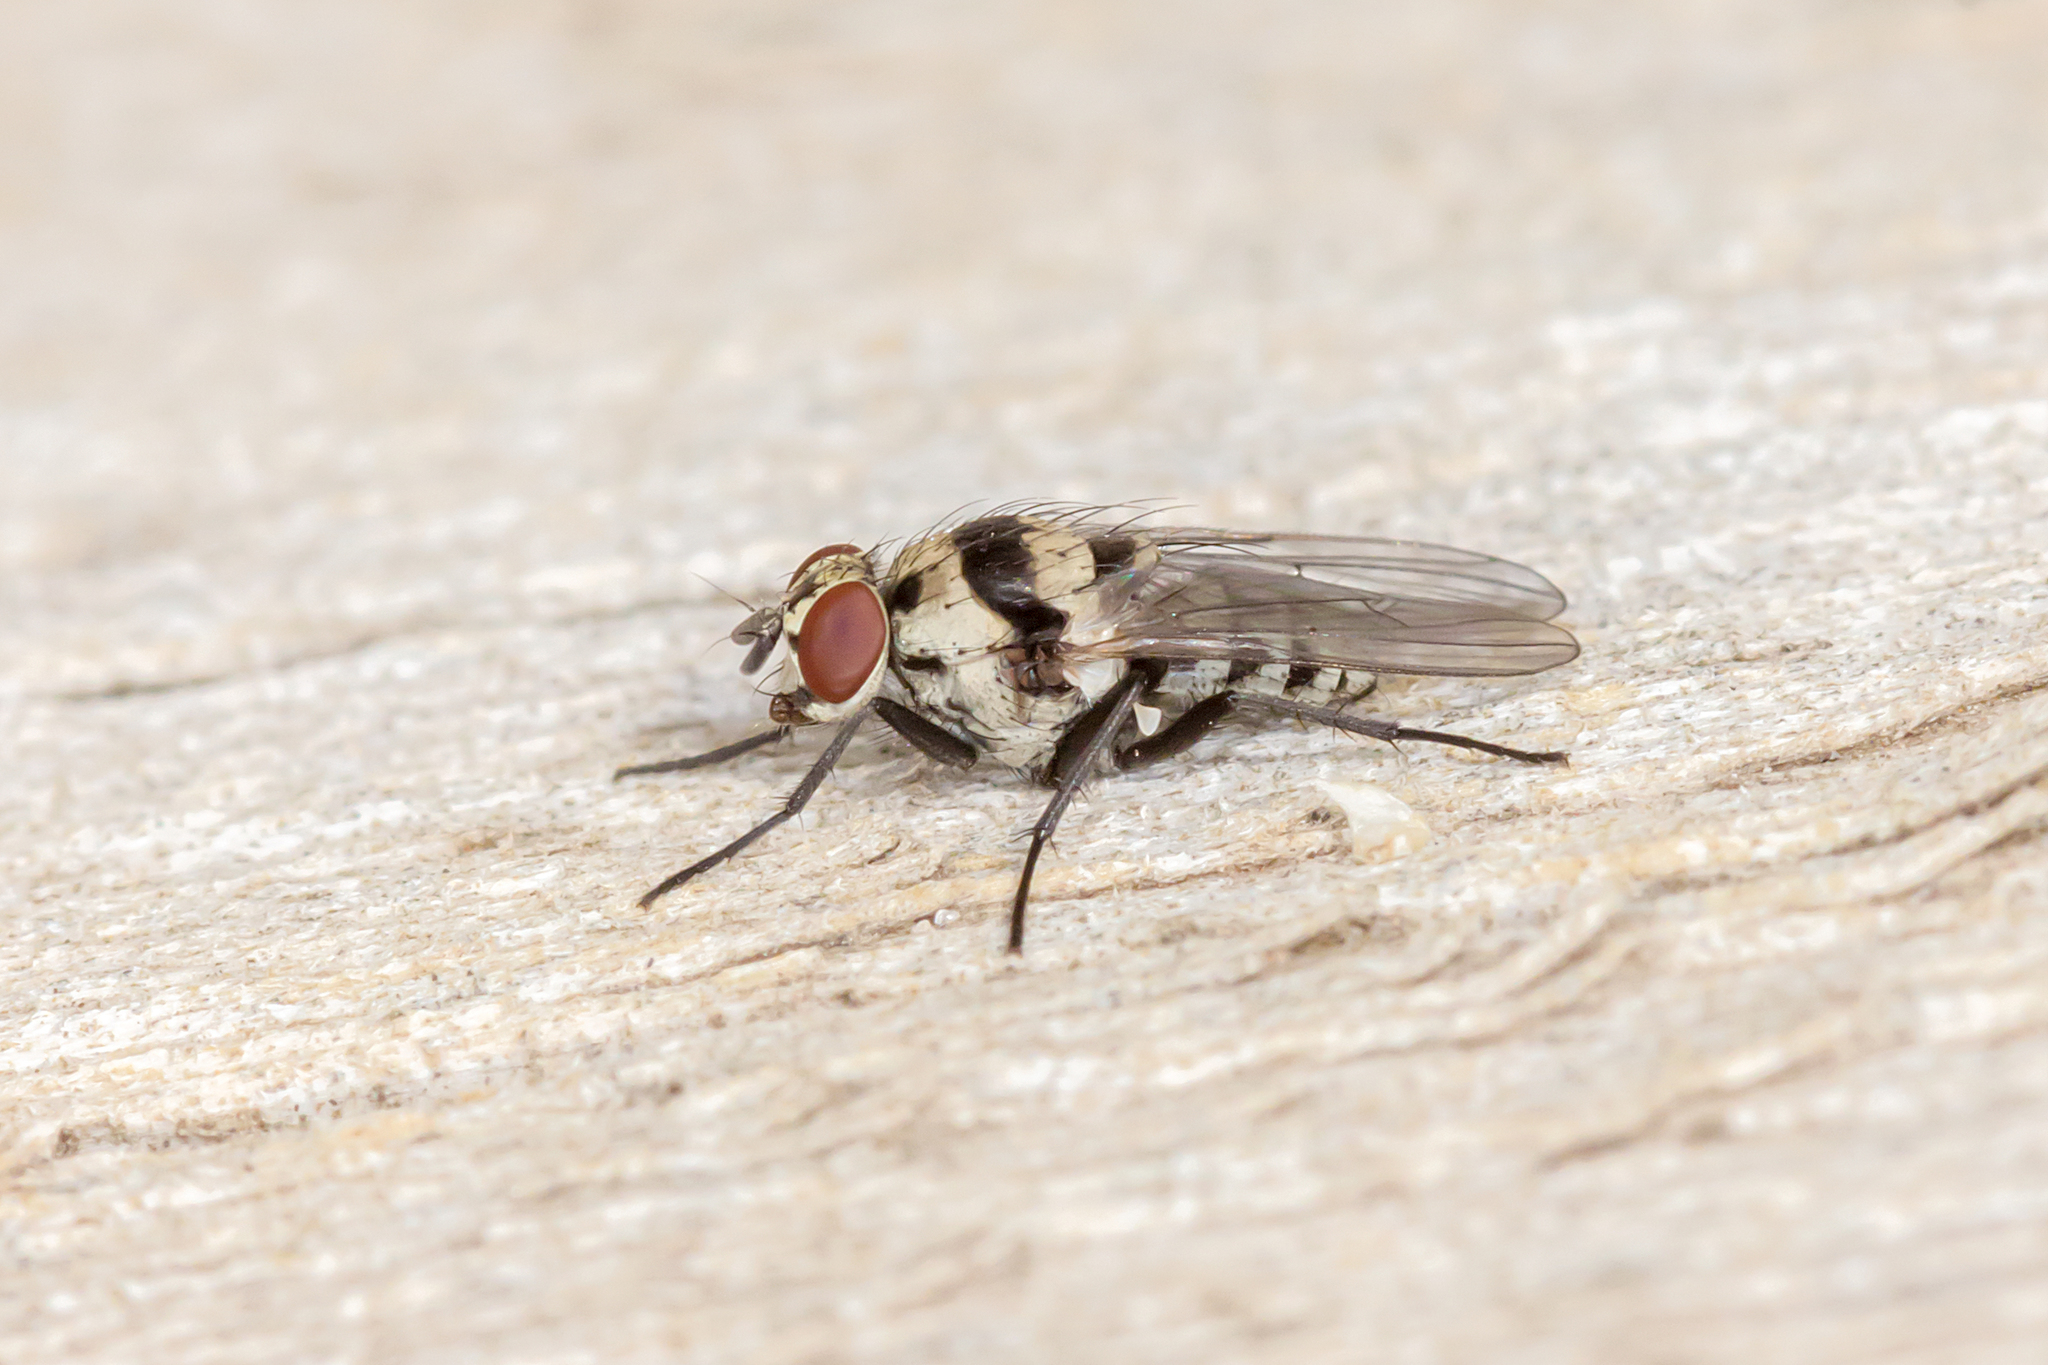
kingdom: Animalia
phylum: Arthropoda
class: Insecta
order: Diptera
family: Anthomyiidae
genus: Anthomyia
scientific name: Anthomyia vicarians
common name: Fly
